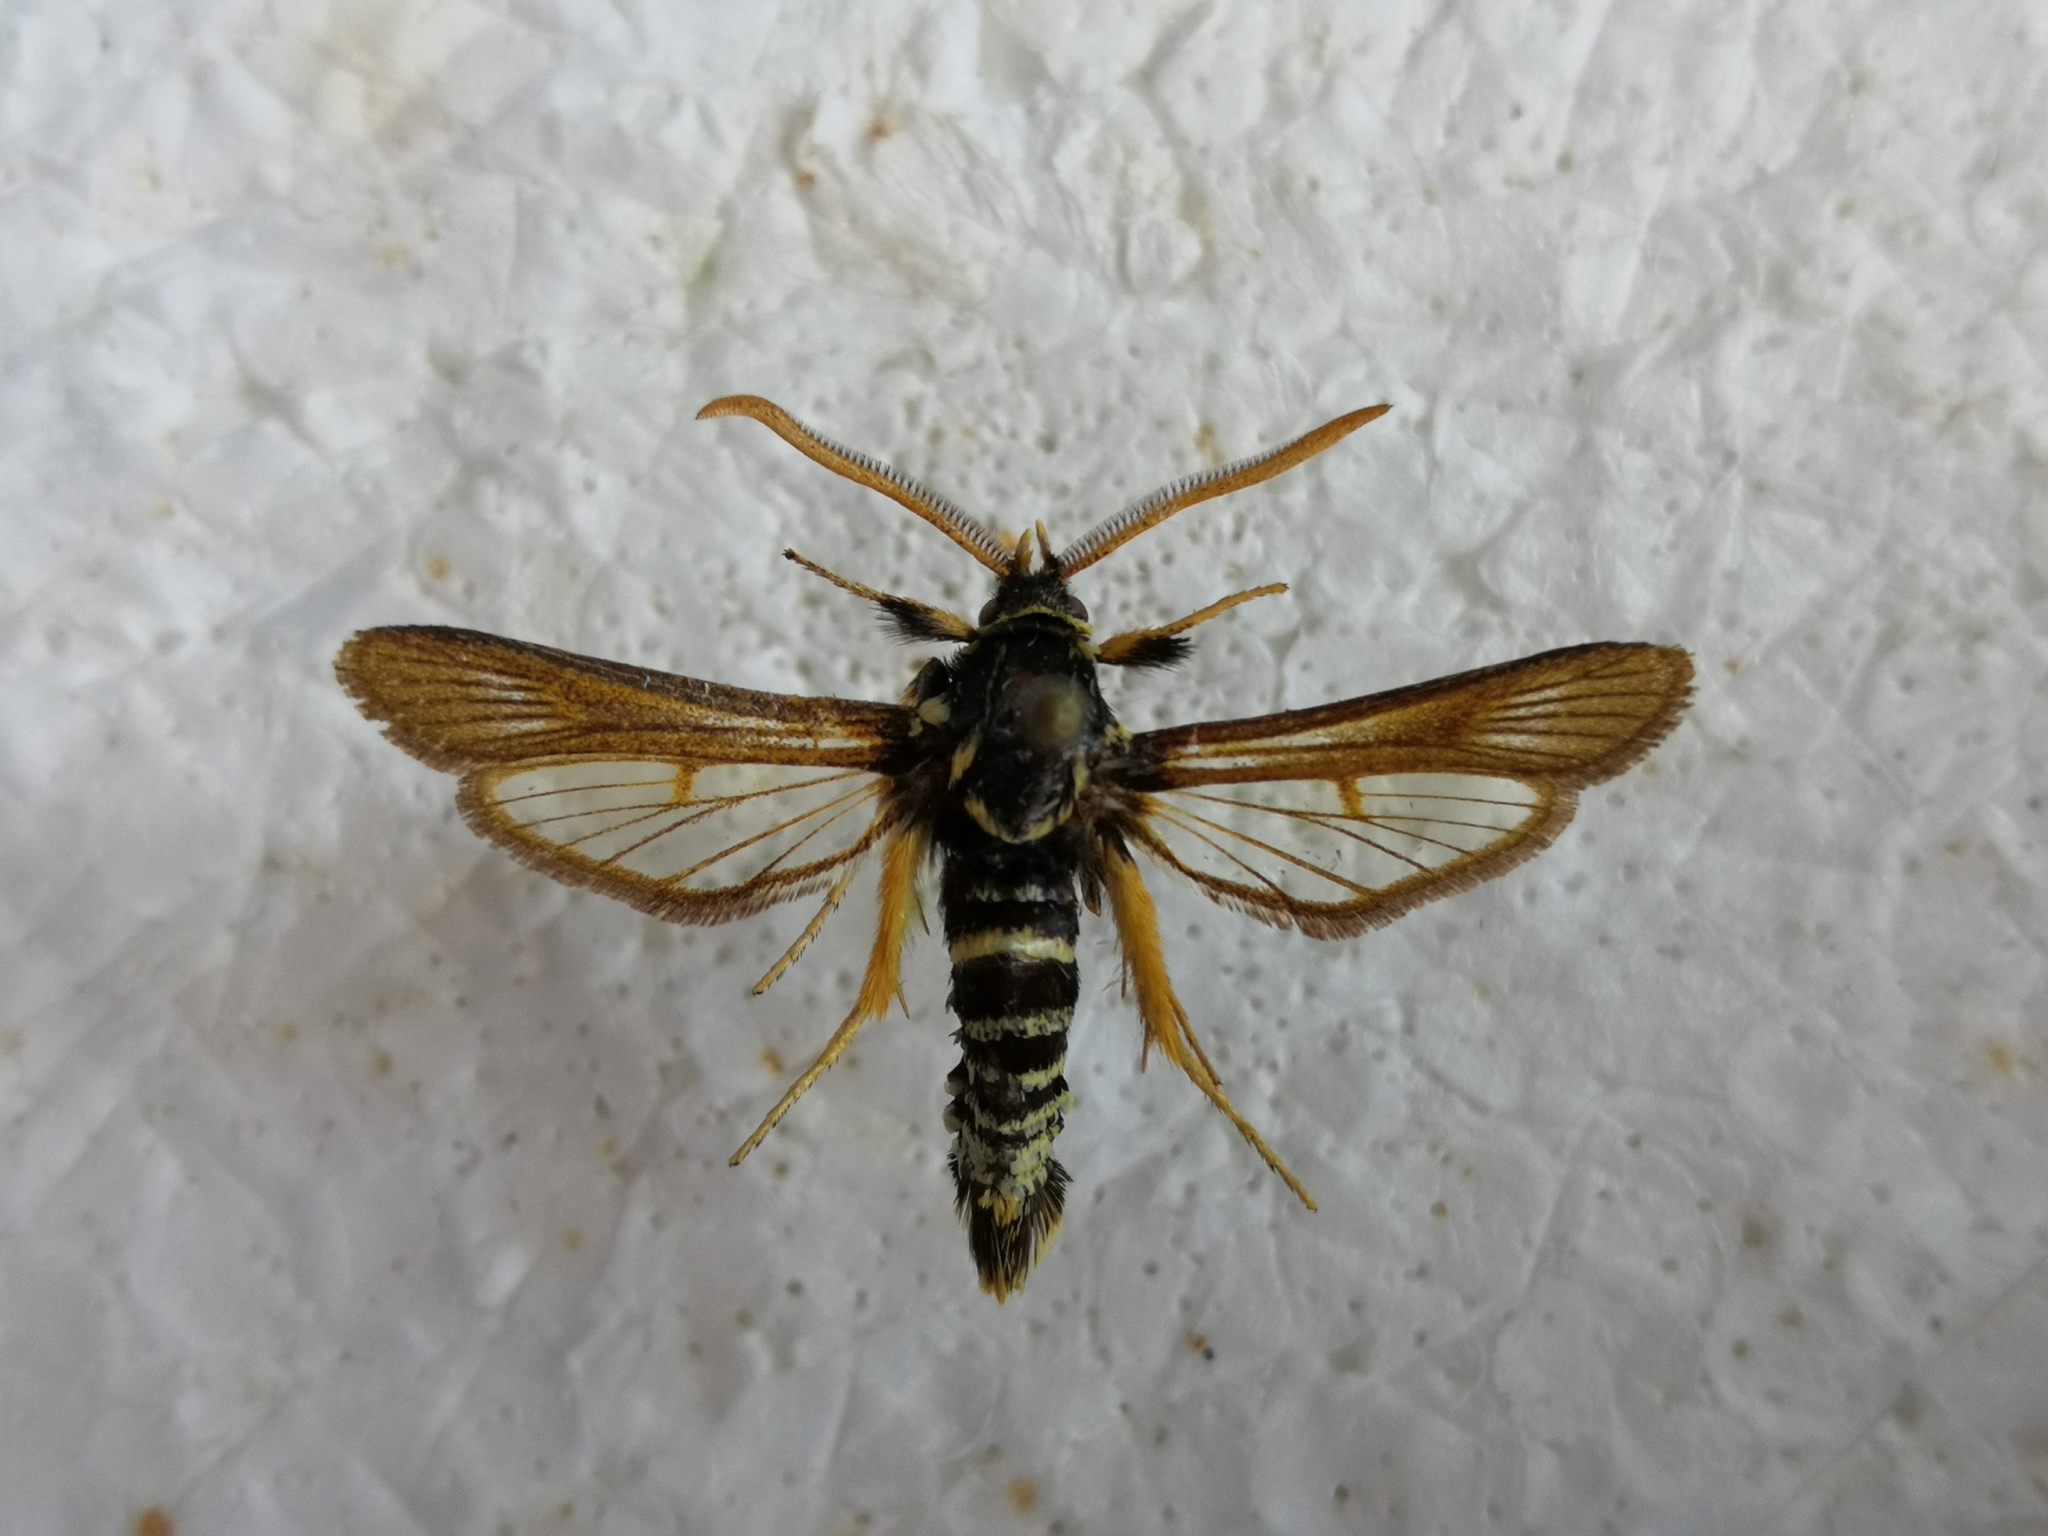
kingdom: Animalia
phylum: Arthropoda
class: Insecta
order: Lepidoptera
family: Sesiidae
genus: Paranthrene
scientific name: Paranthrene insolitus
